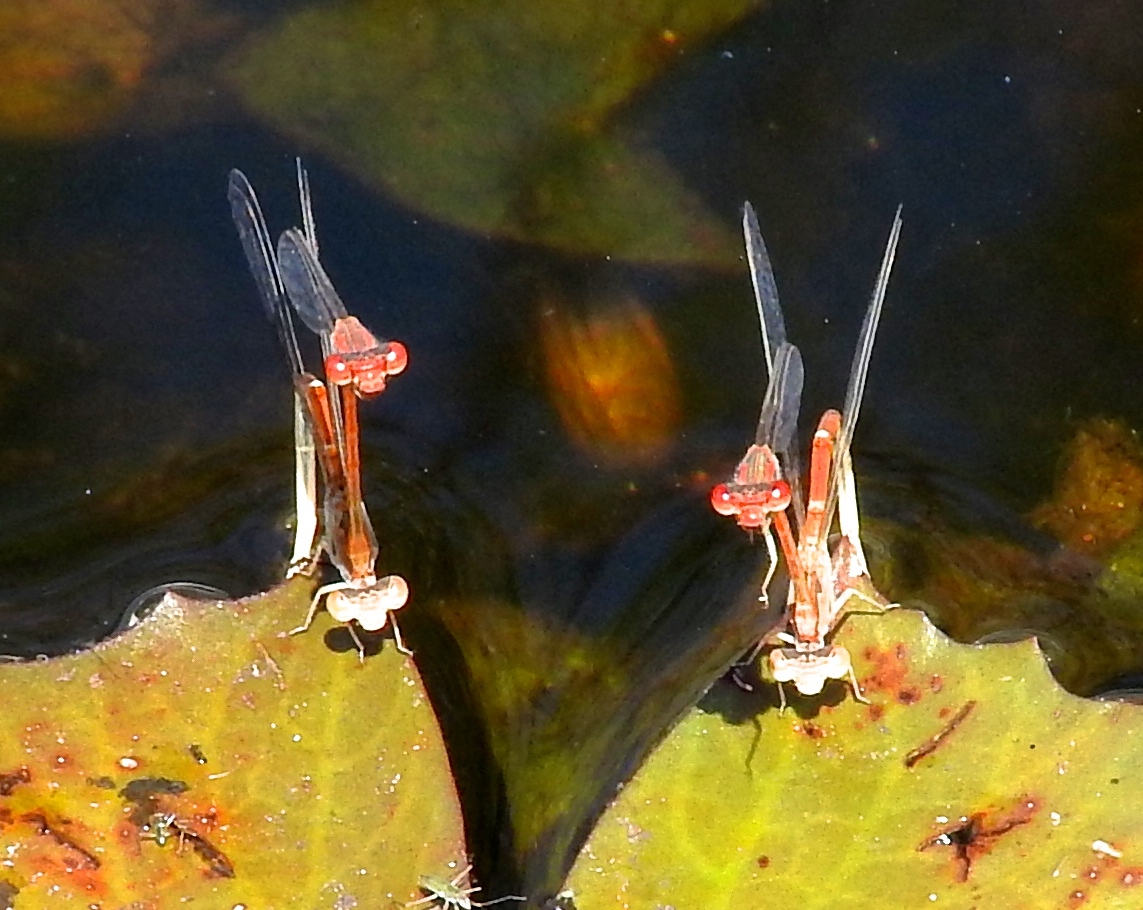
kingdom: Animalia
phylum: Arthropoda
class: Insecta
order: Odonata
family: Coenagrionidae
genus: Telebasis
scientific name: Telebasis salva
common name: Desert firetail
